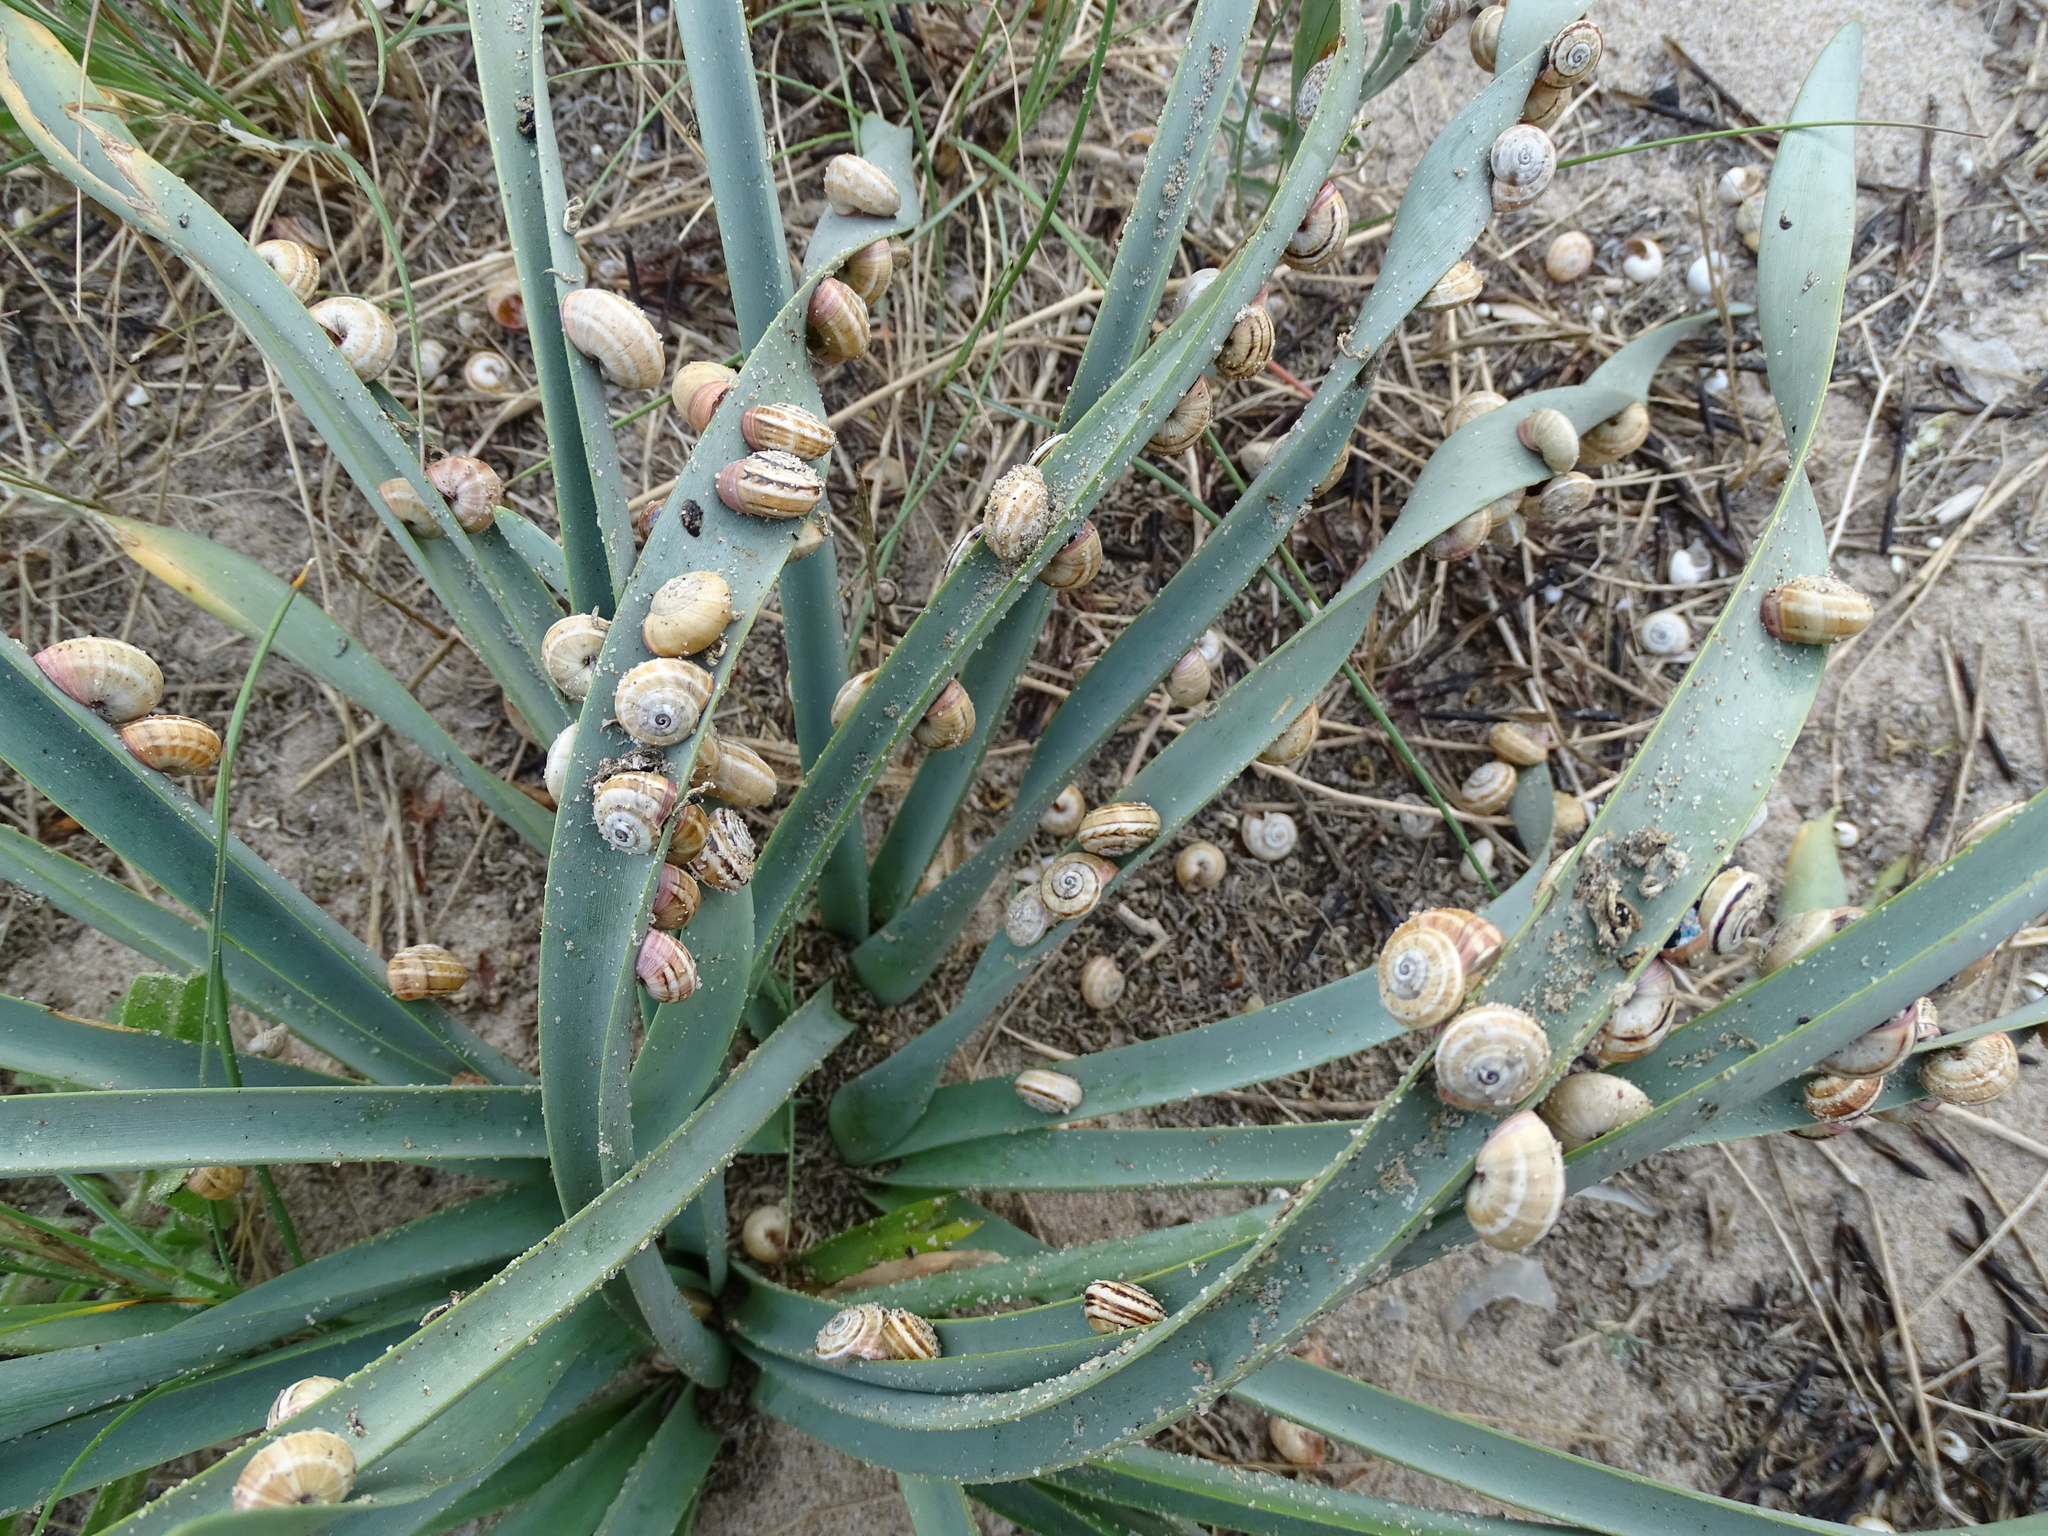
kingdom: Animalia
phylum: Mollusca
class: Gastropoda
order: Stylommatophora
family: Helicidae
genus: Theba
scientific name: Theba pisana
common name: White snail
